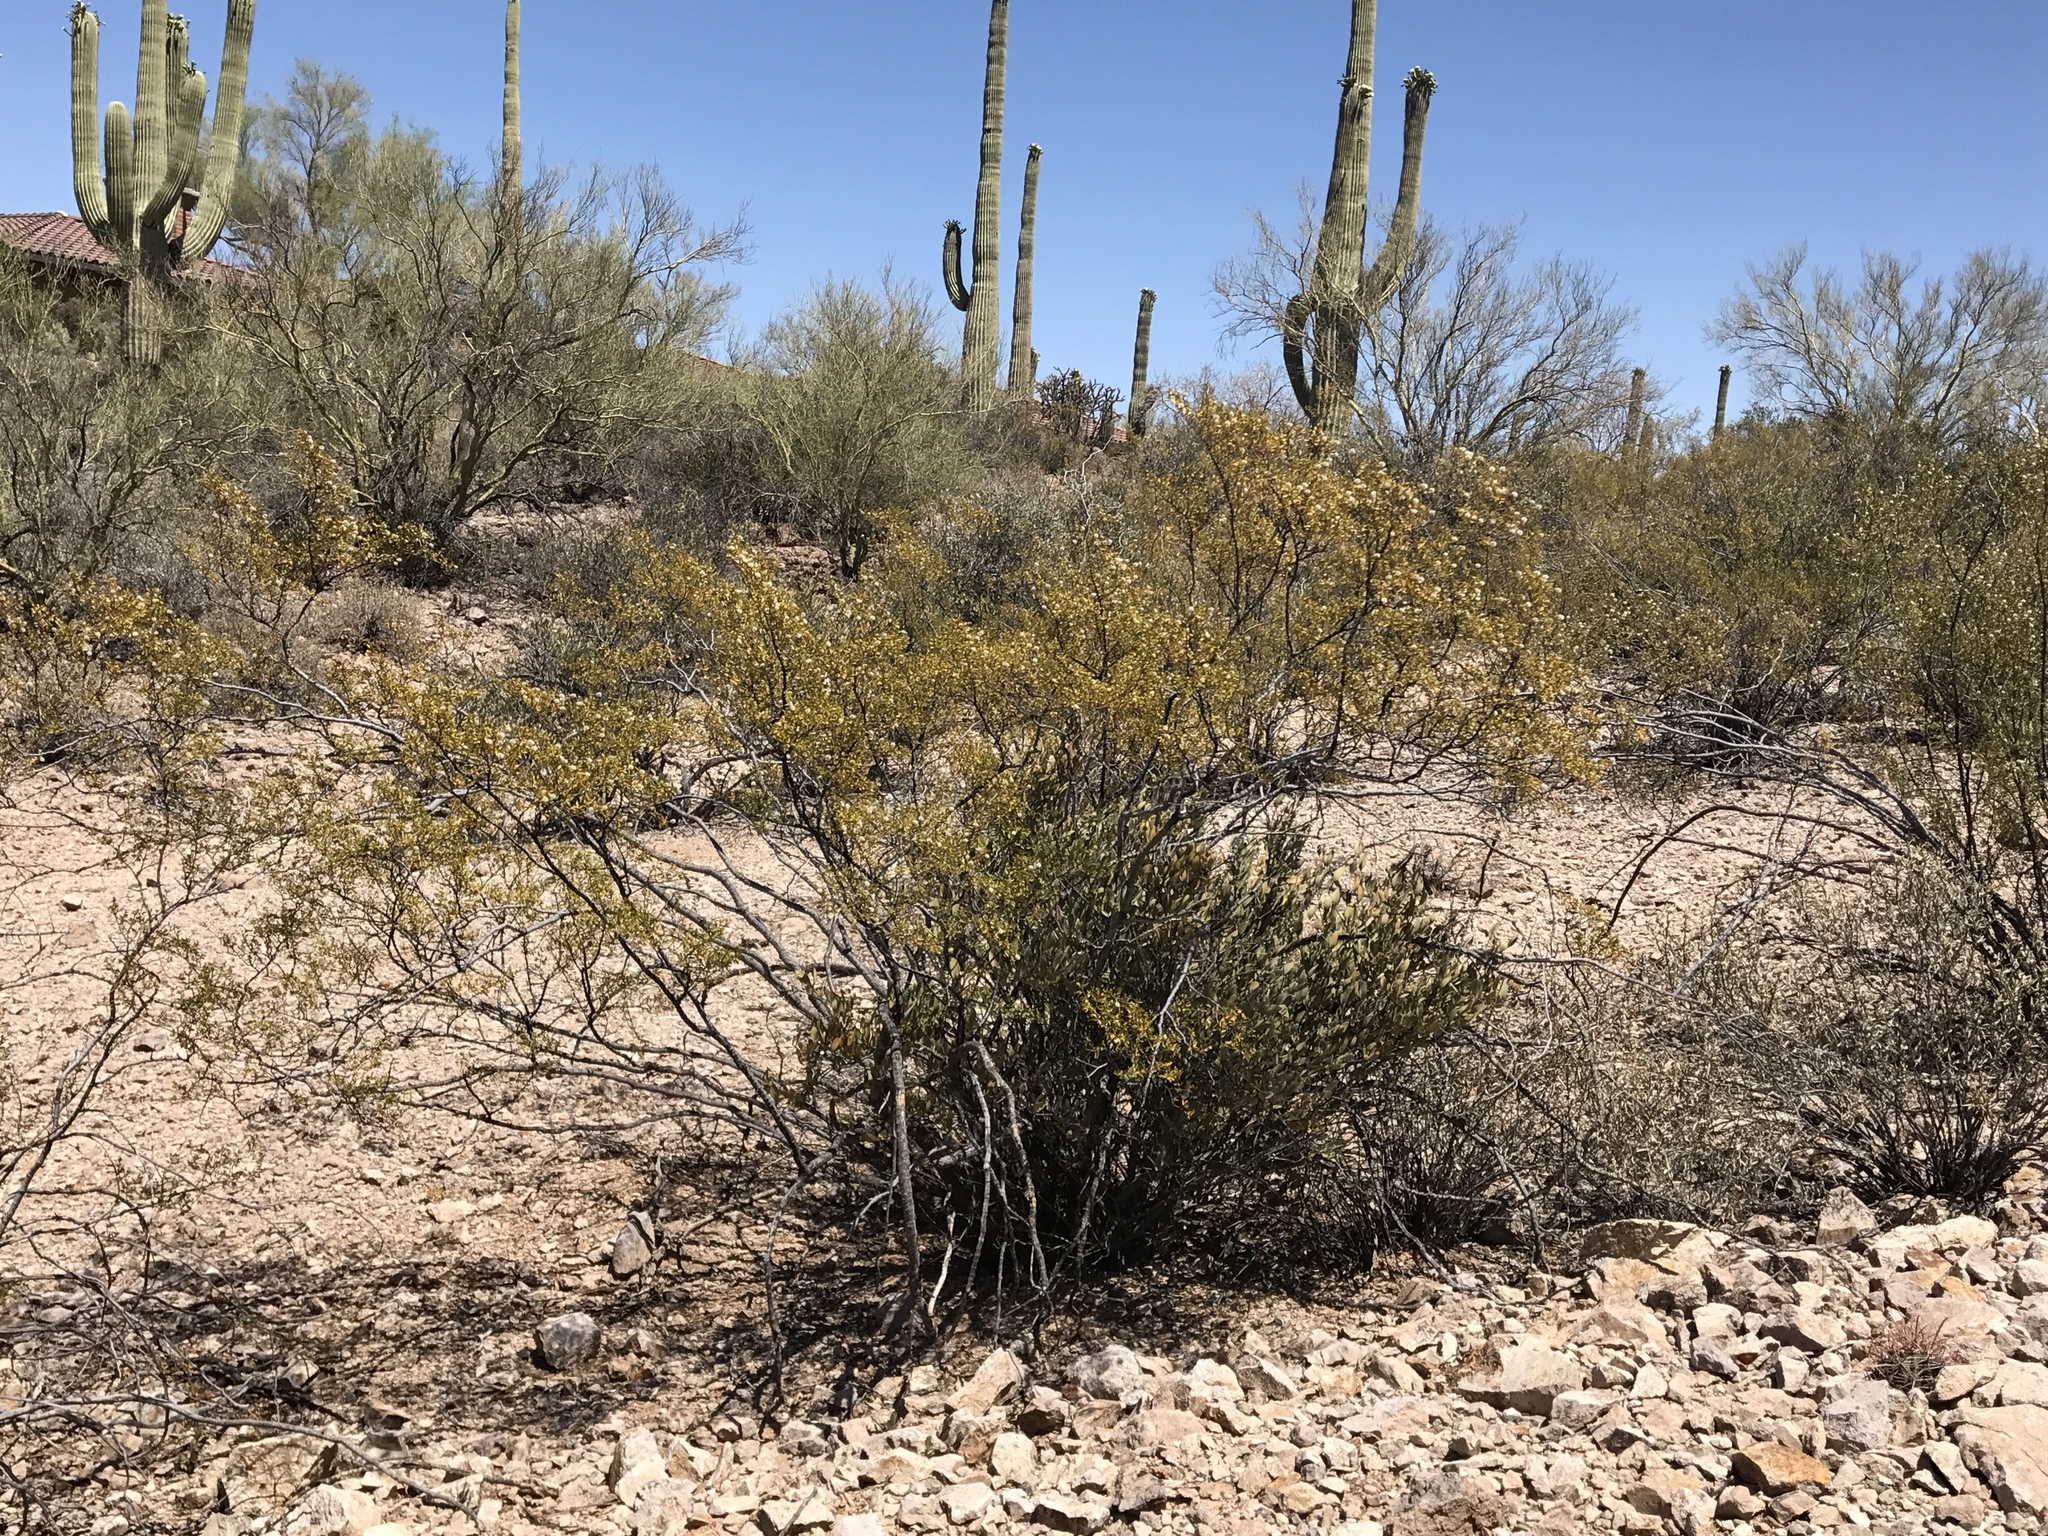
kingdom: Plantae
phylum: Tracheophyta
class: Magnoliopsida
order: Zygophyllales
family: Zygophyllaceae
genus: Larrea
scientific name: Larrea tridentata
